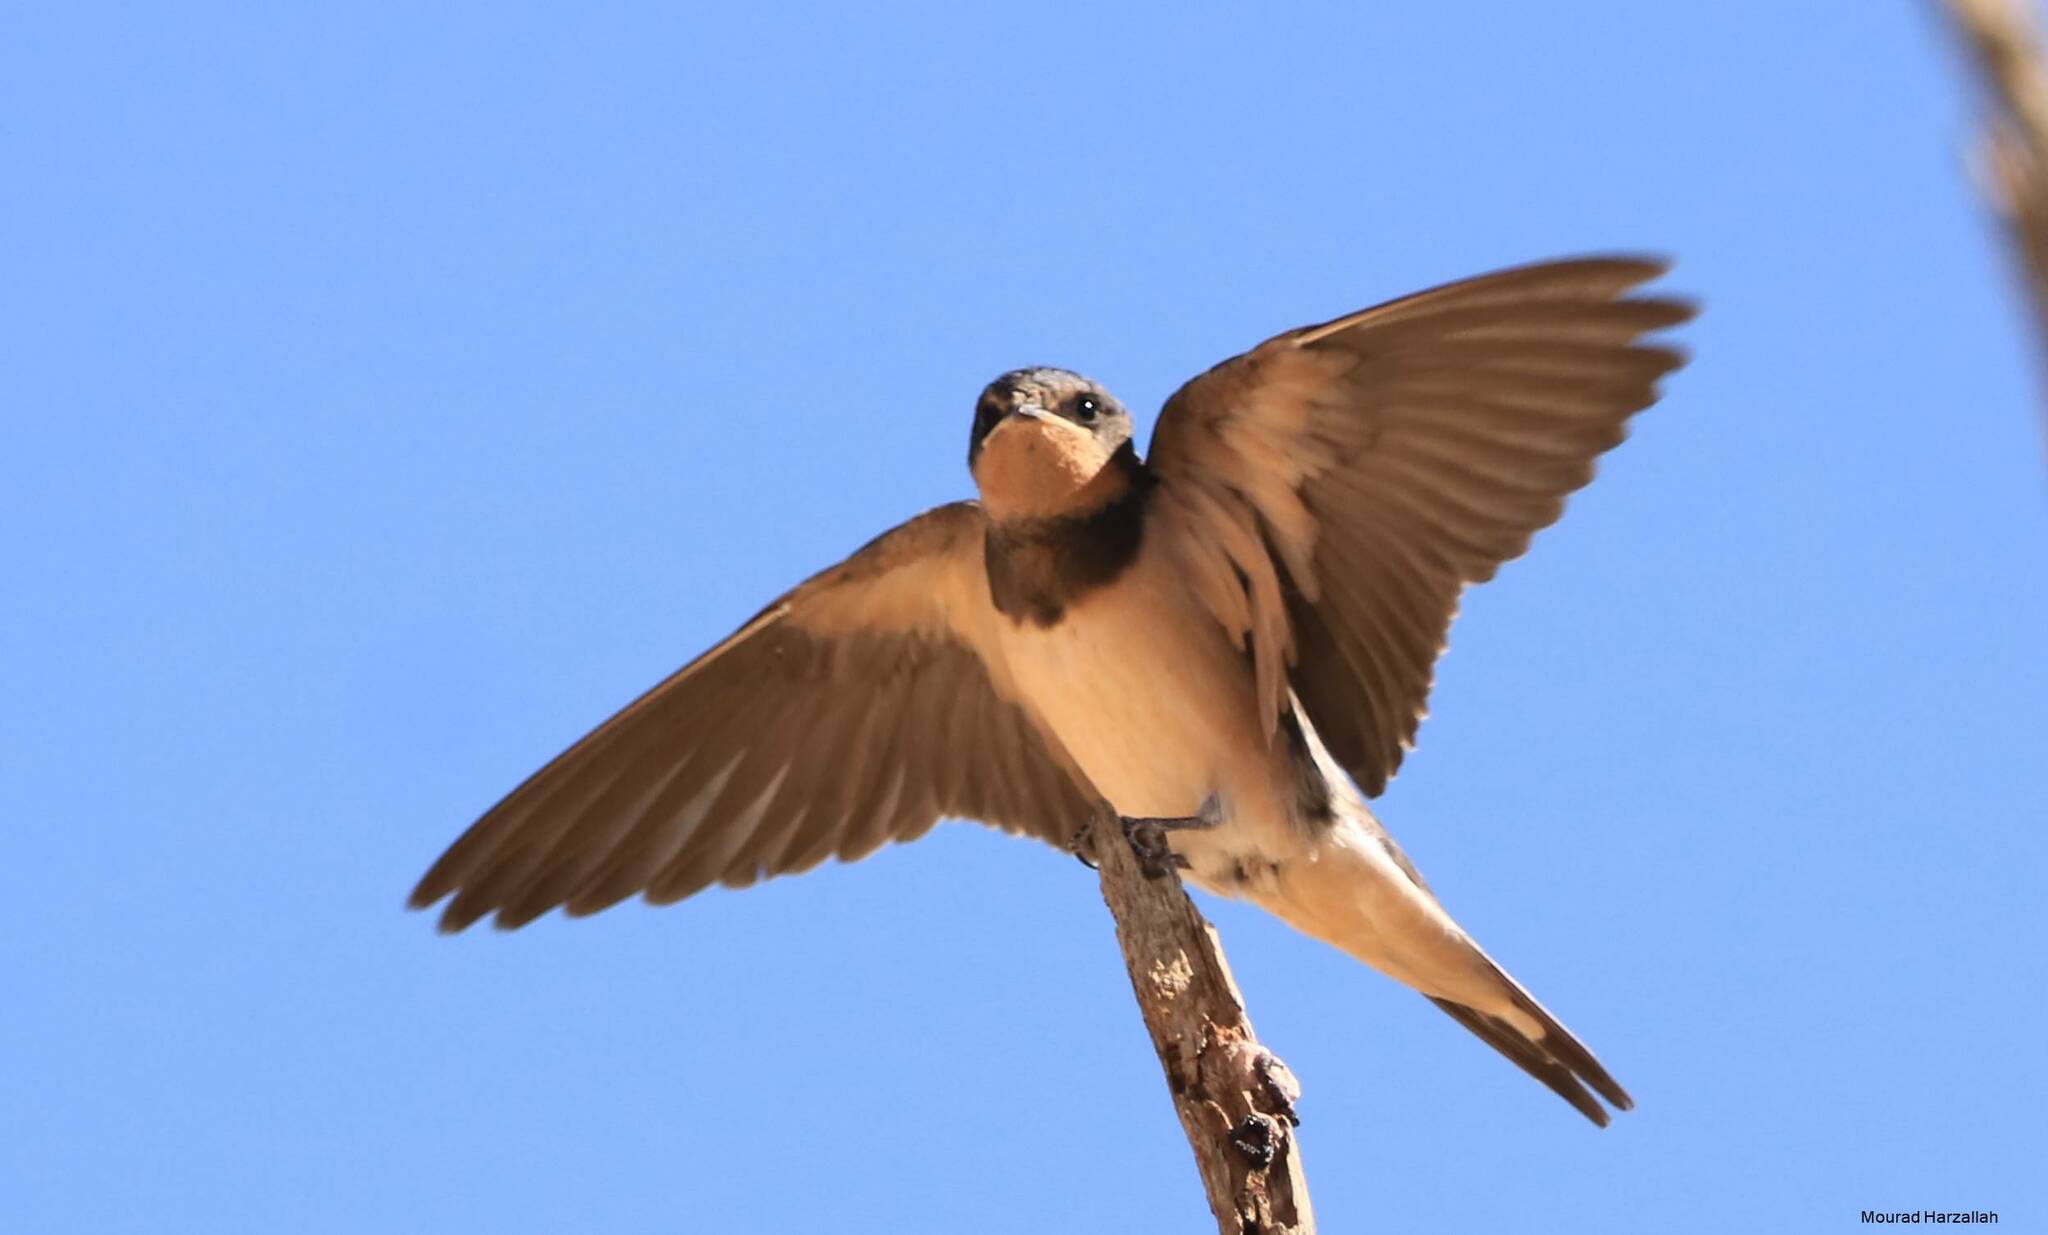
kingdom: Animalia
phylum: Chordata
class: Aves
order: Passeriformes
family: Hirundinidae
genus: Hirundo
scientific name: Hirundo rustica
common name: Barn swallow
